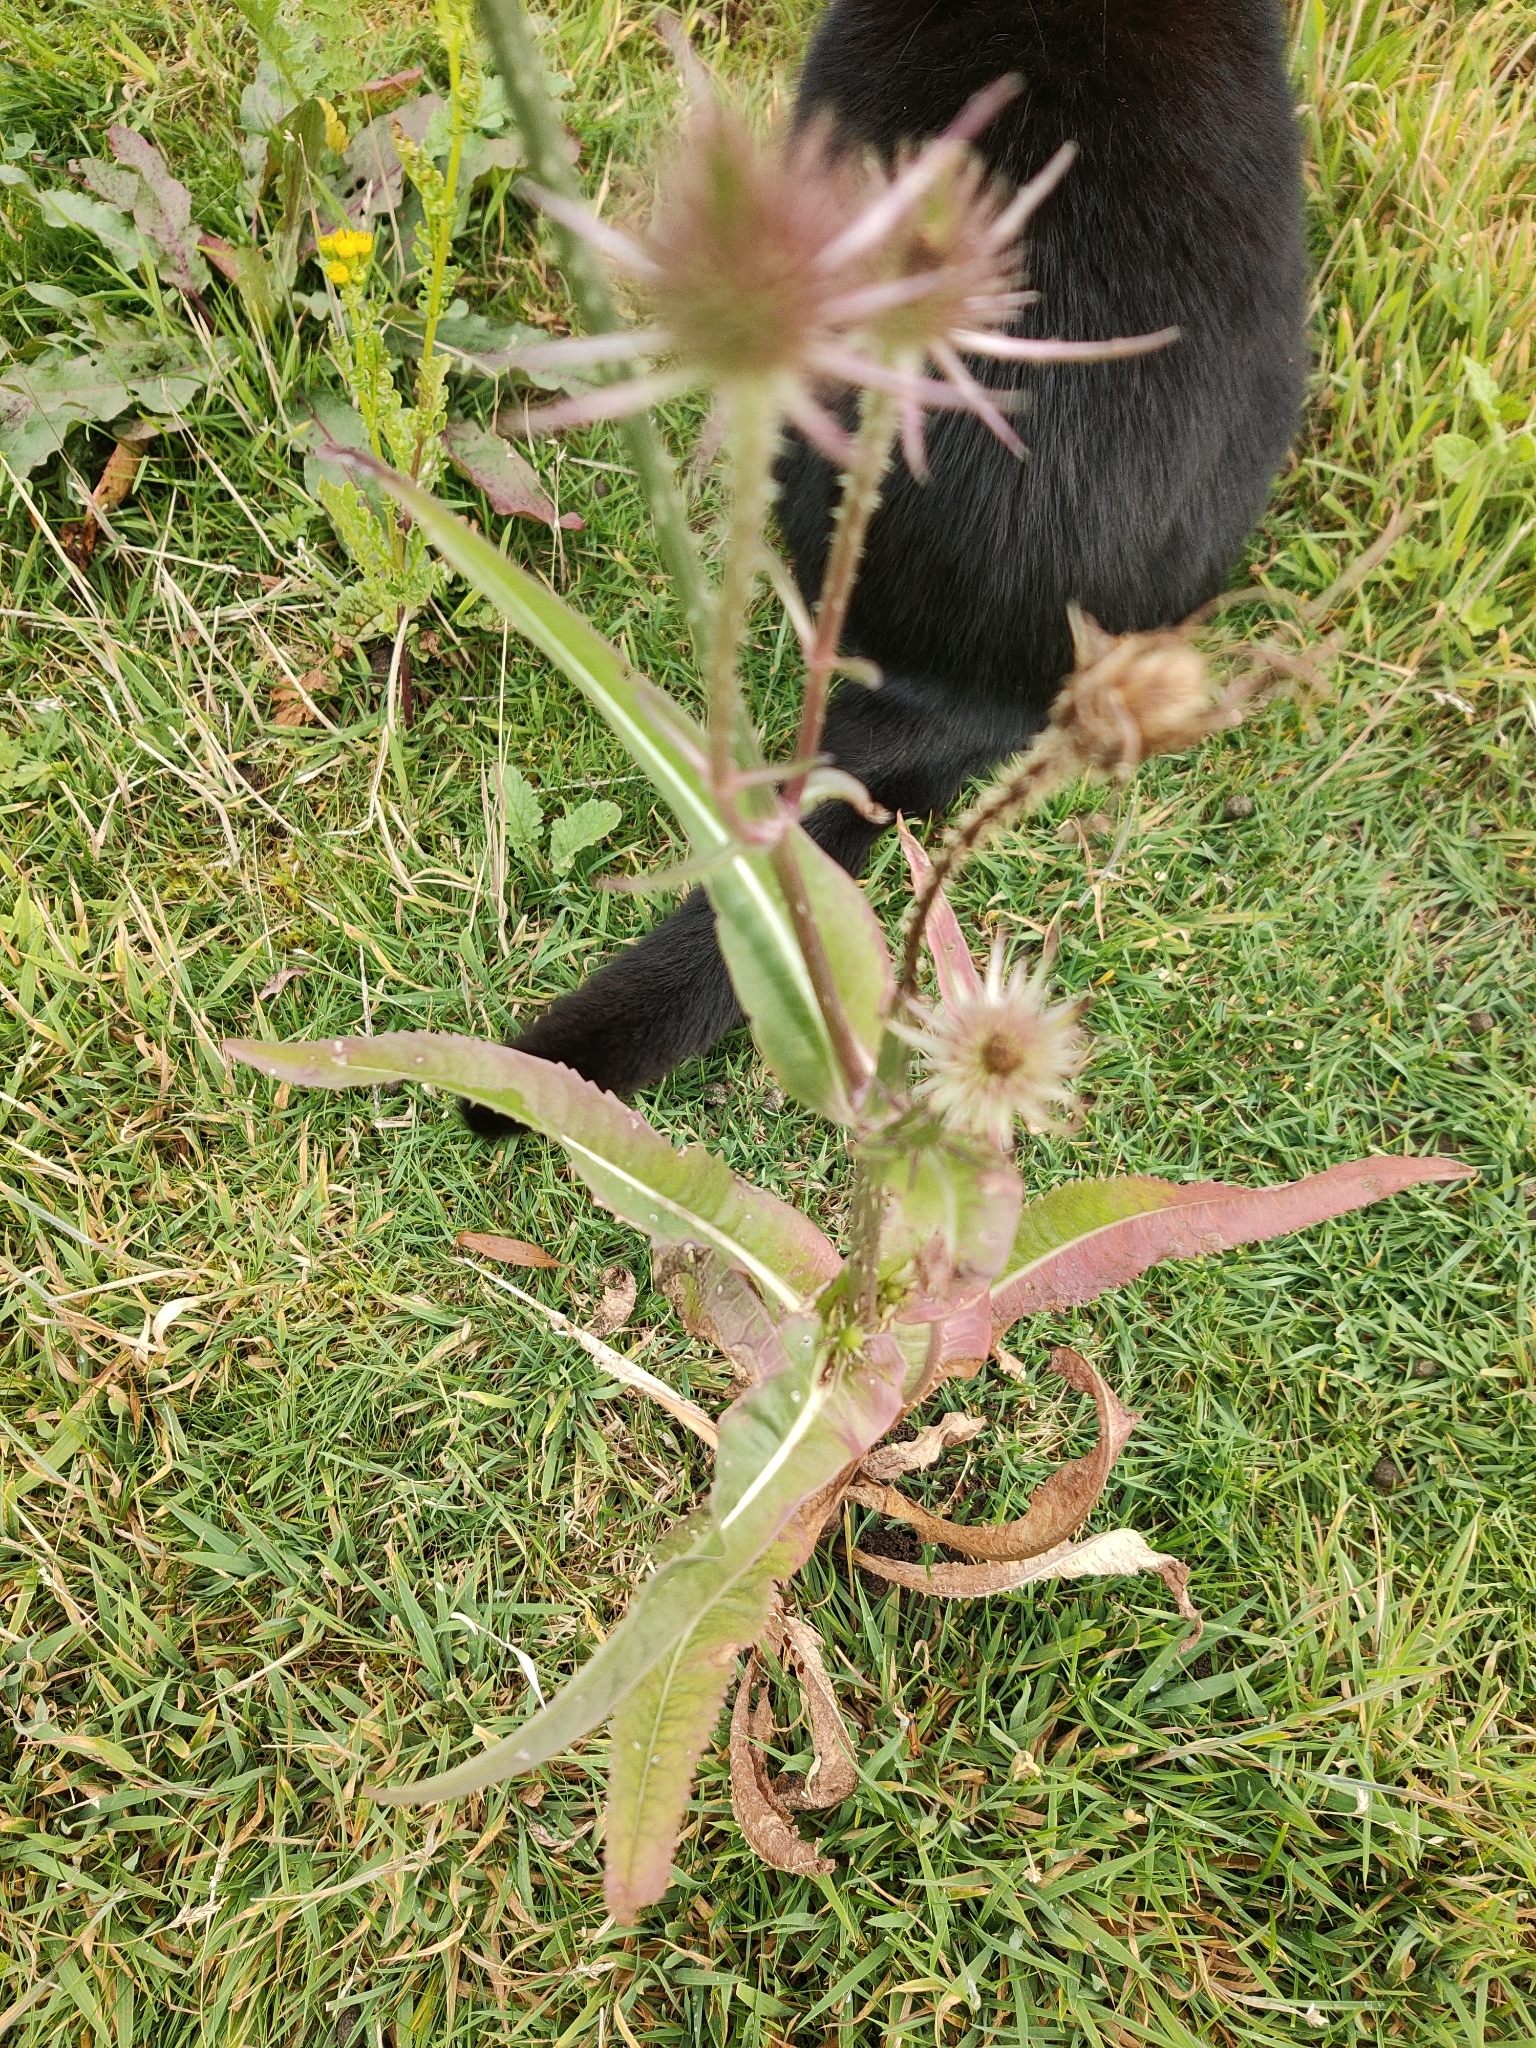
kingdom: Plantae
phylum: Tracheophyta
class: Magnoliopsida
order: Dipsacales
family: Caprifoliaceae
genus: Dipsacus
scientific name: Dipsacus fullonum
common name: Teasel
